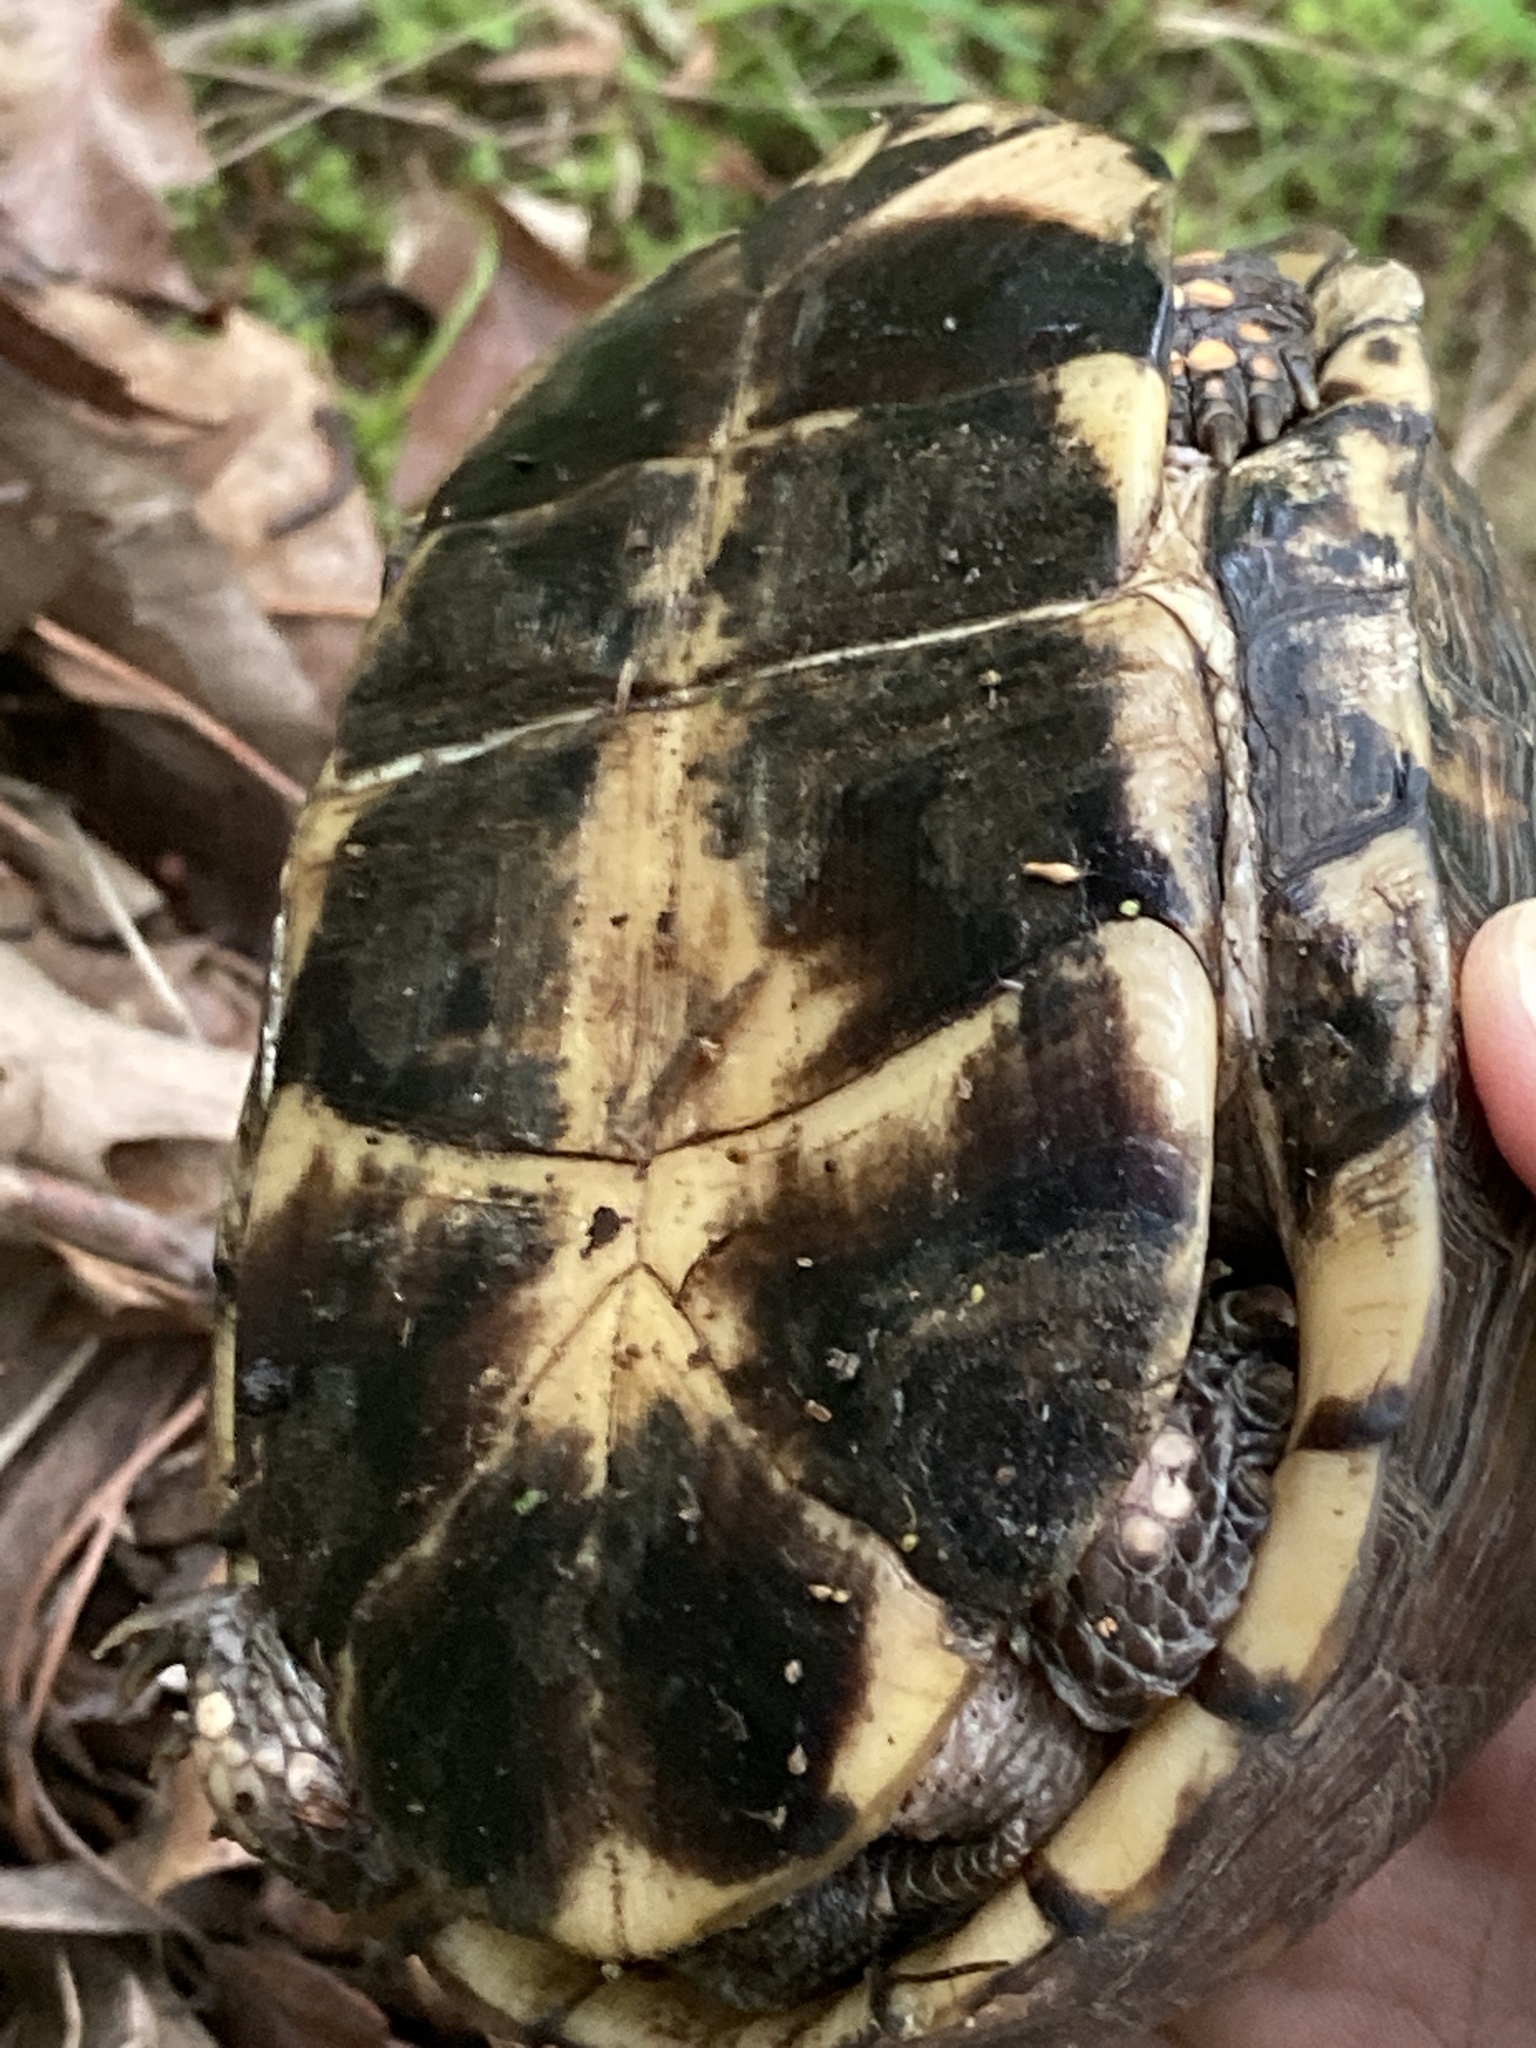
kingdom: Animalia
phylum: Chordata
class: Testudines
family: Emydidae
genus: Terrapene
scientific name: Terrapene carolina
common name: Common box turtle
